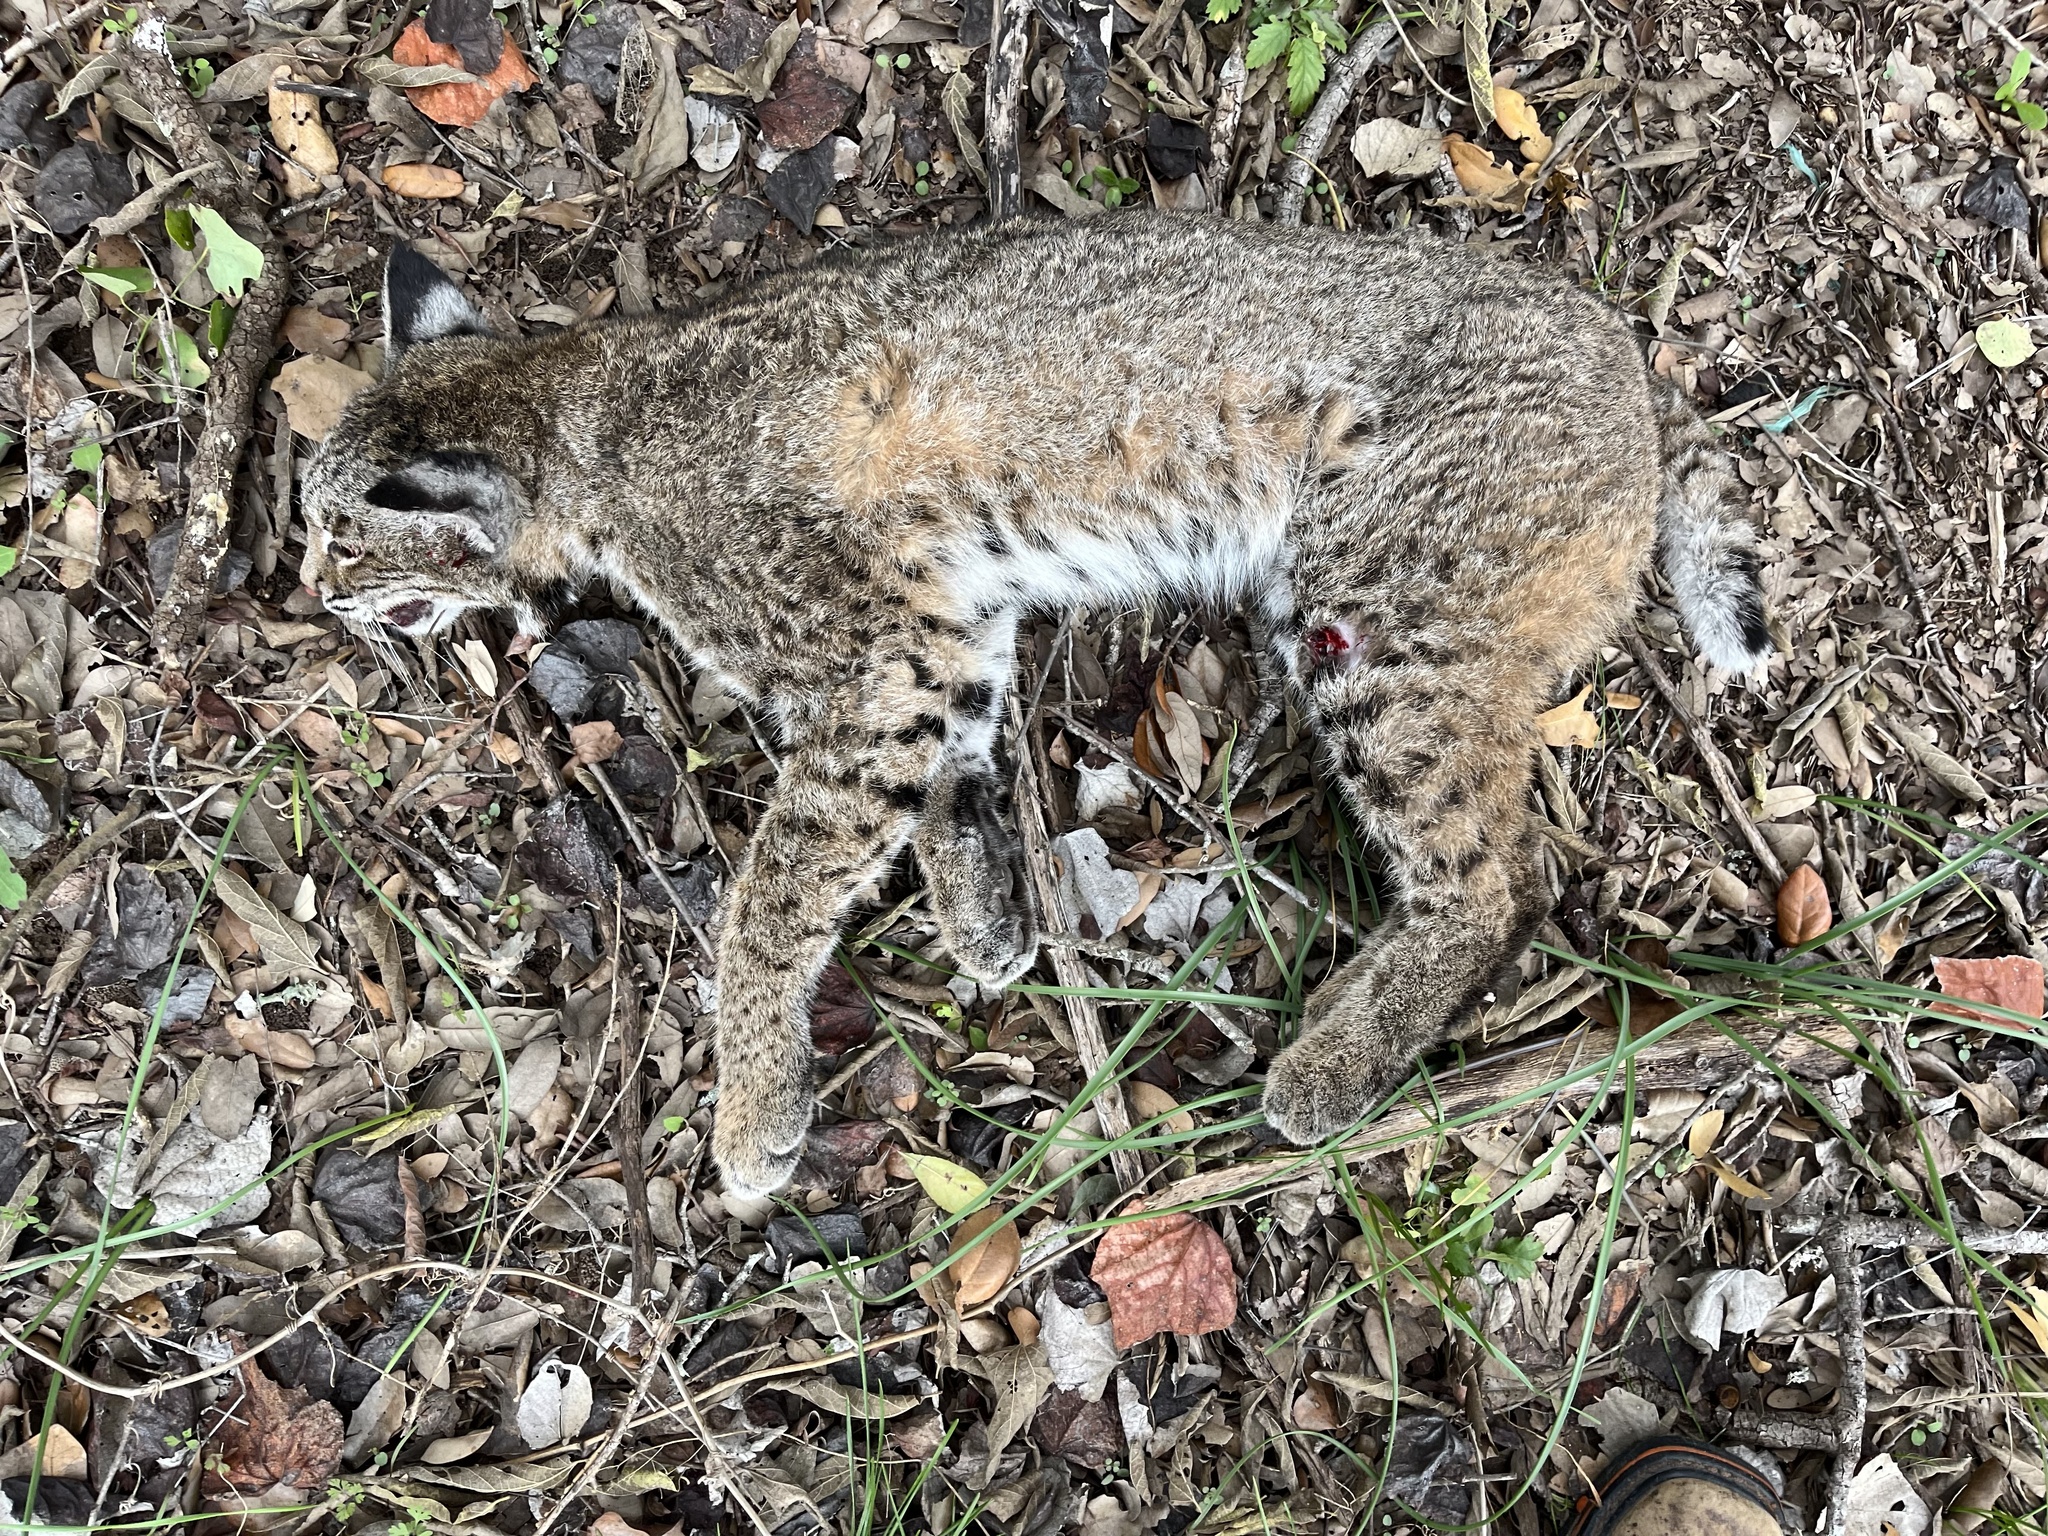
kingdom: Animalia
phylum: Chordata
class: Mammalia
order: Carnivora
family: Felidae
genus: Lynx
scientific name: Lynx rufus
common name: Bobcat
